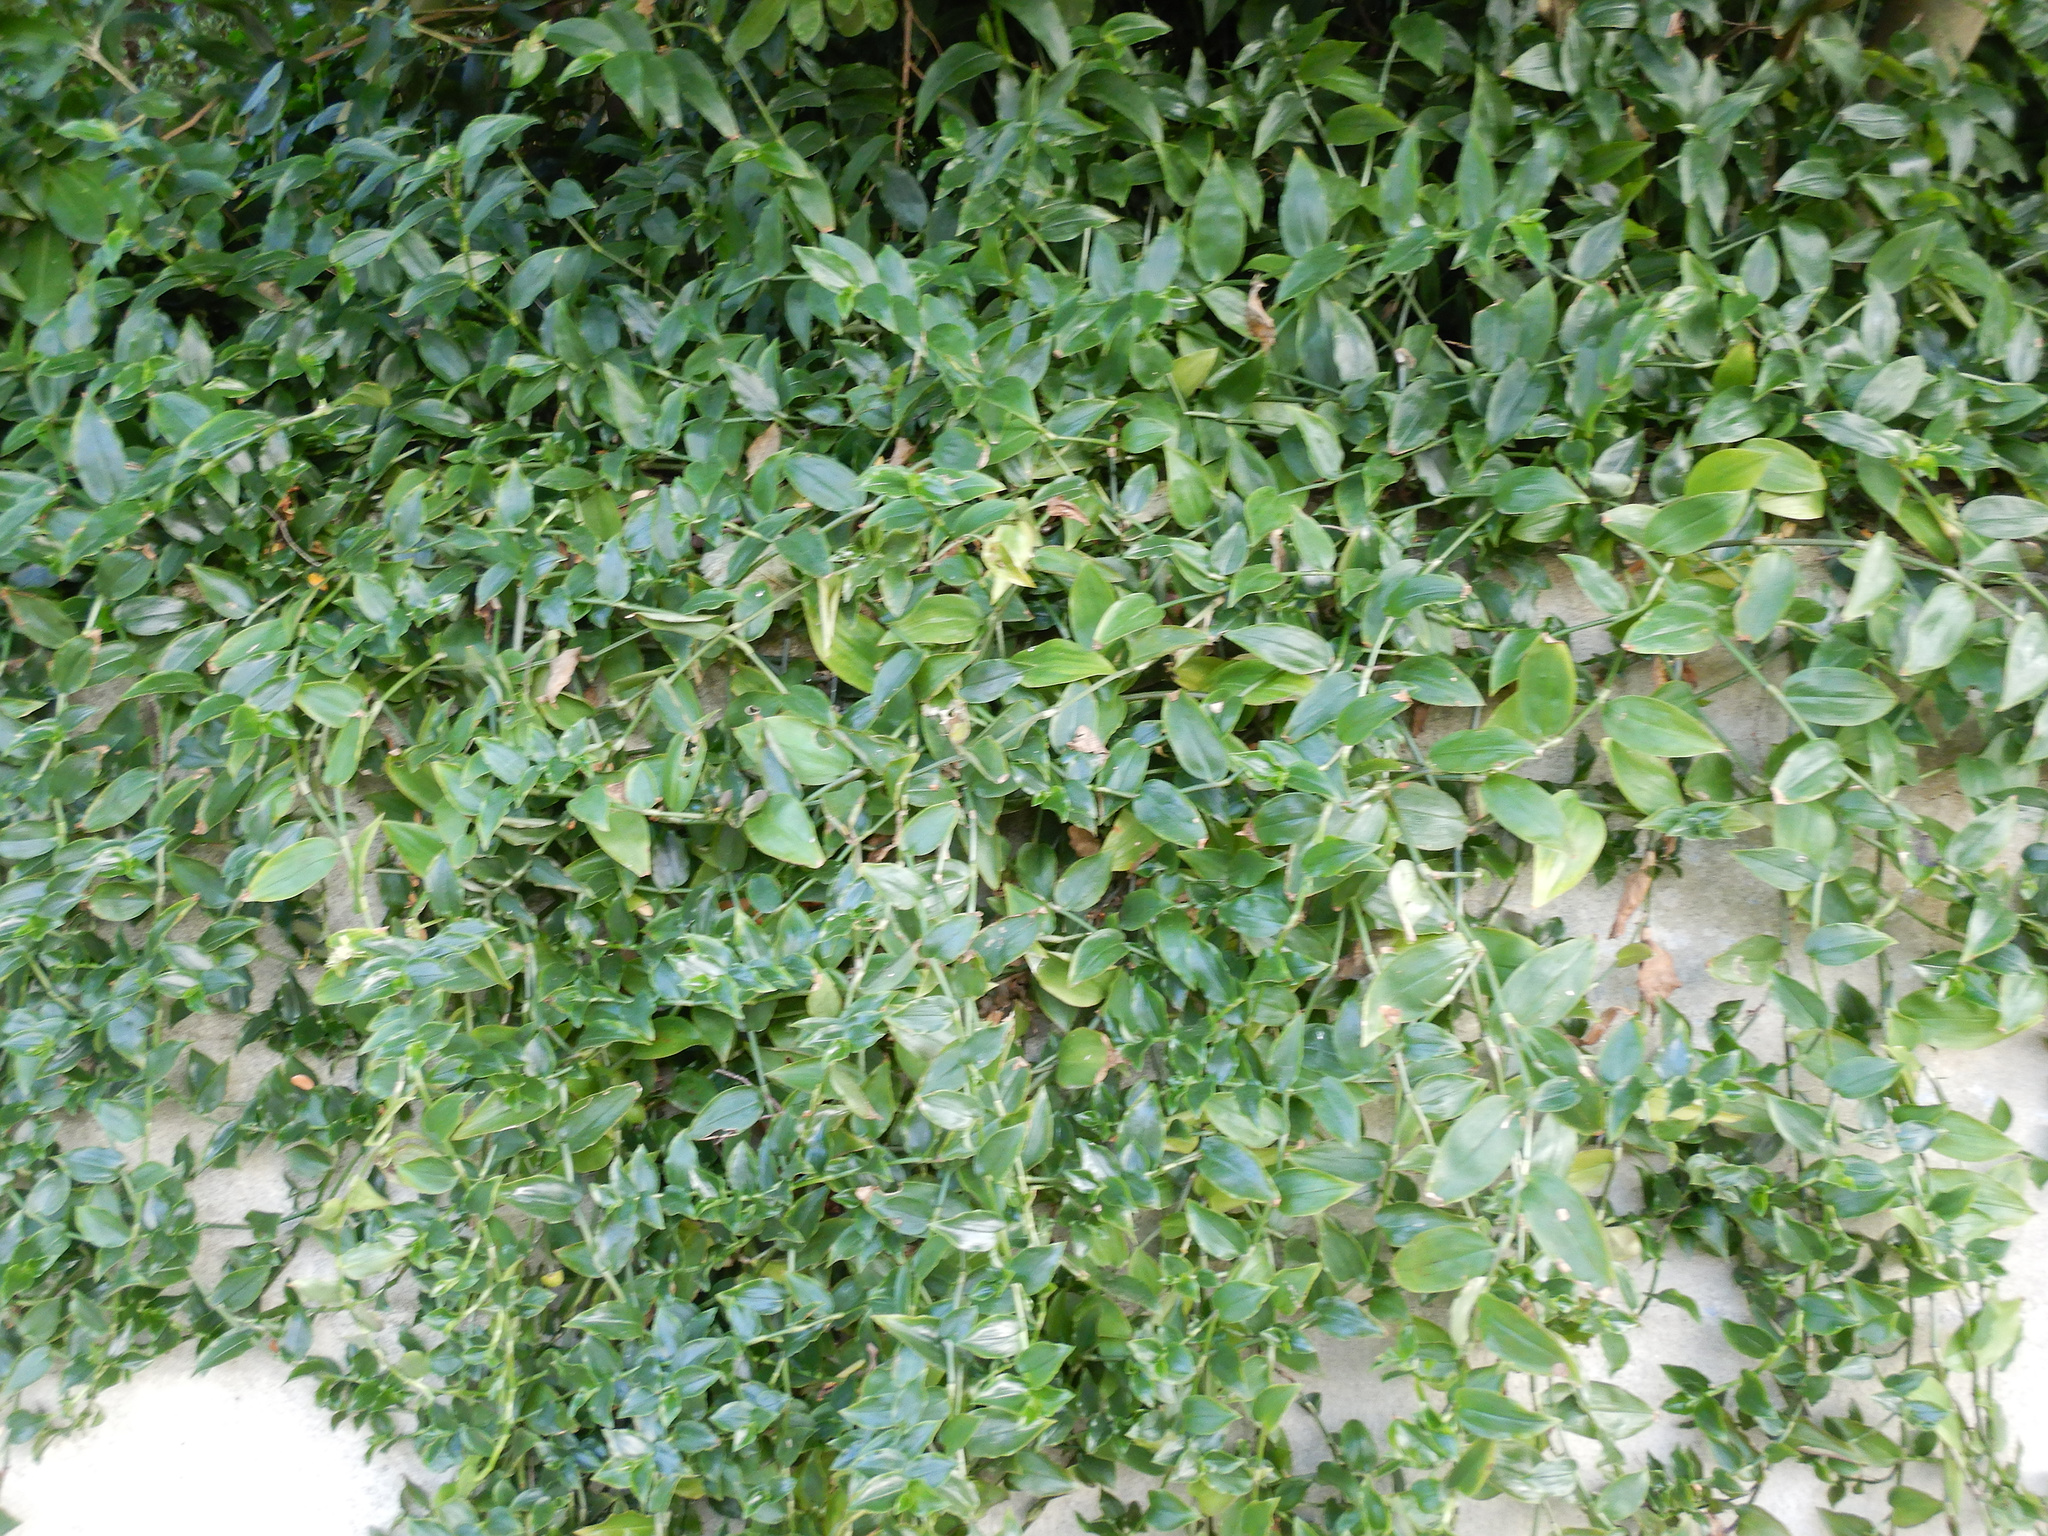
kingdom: Plantae
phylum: Tracheophyta
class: Liliopsida
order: Commelinales
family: Commelinaceae
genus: Tradescantia
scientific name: Tradescantia fluminensis
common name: Wandering-jew
